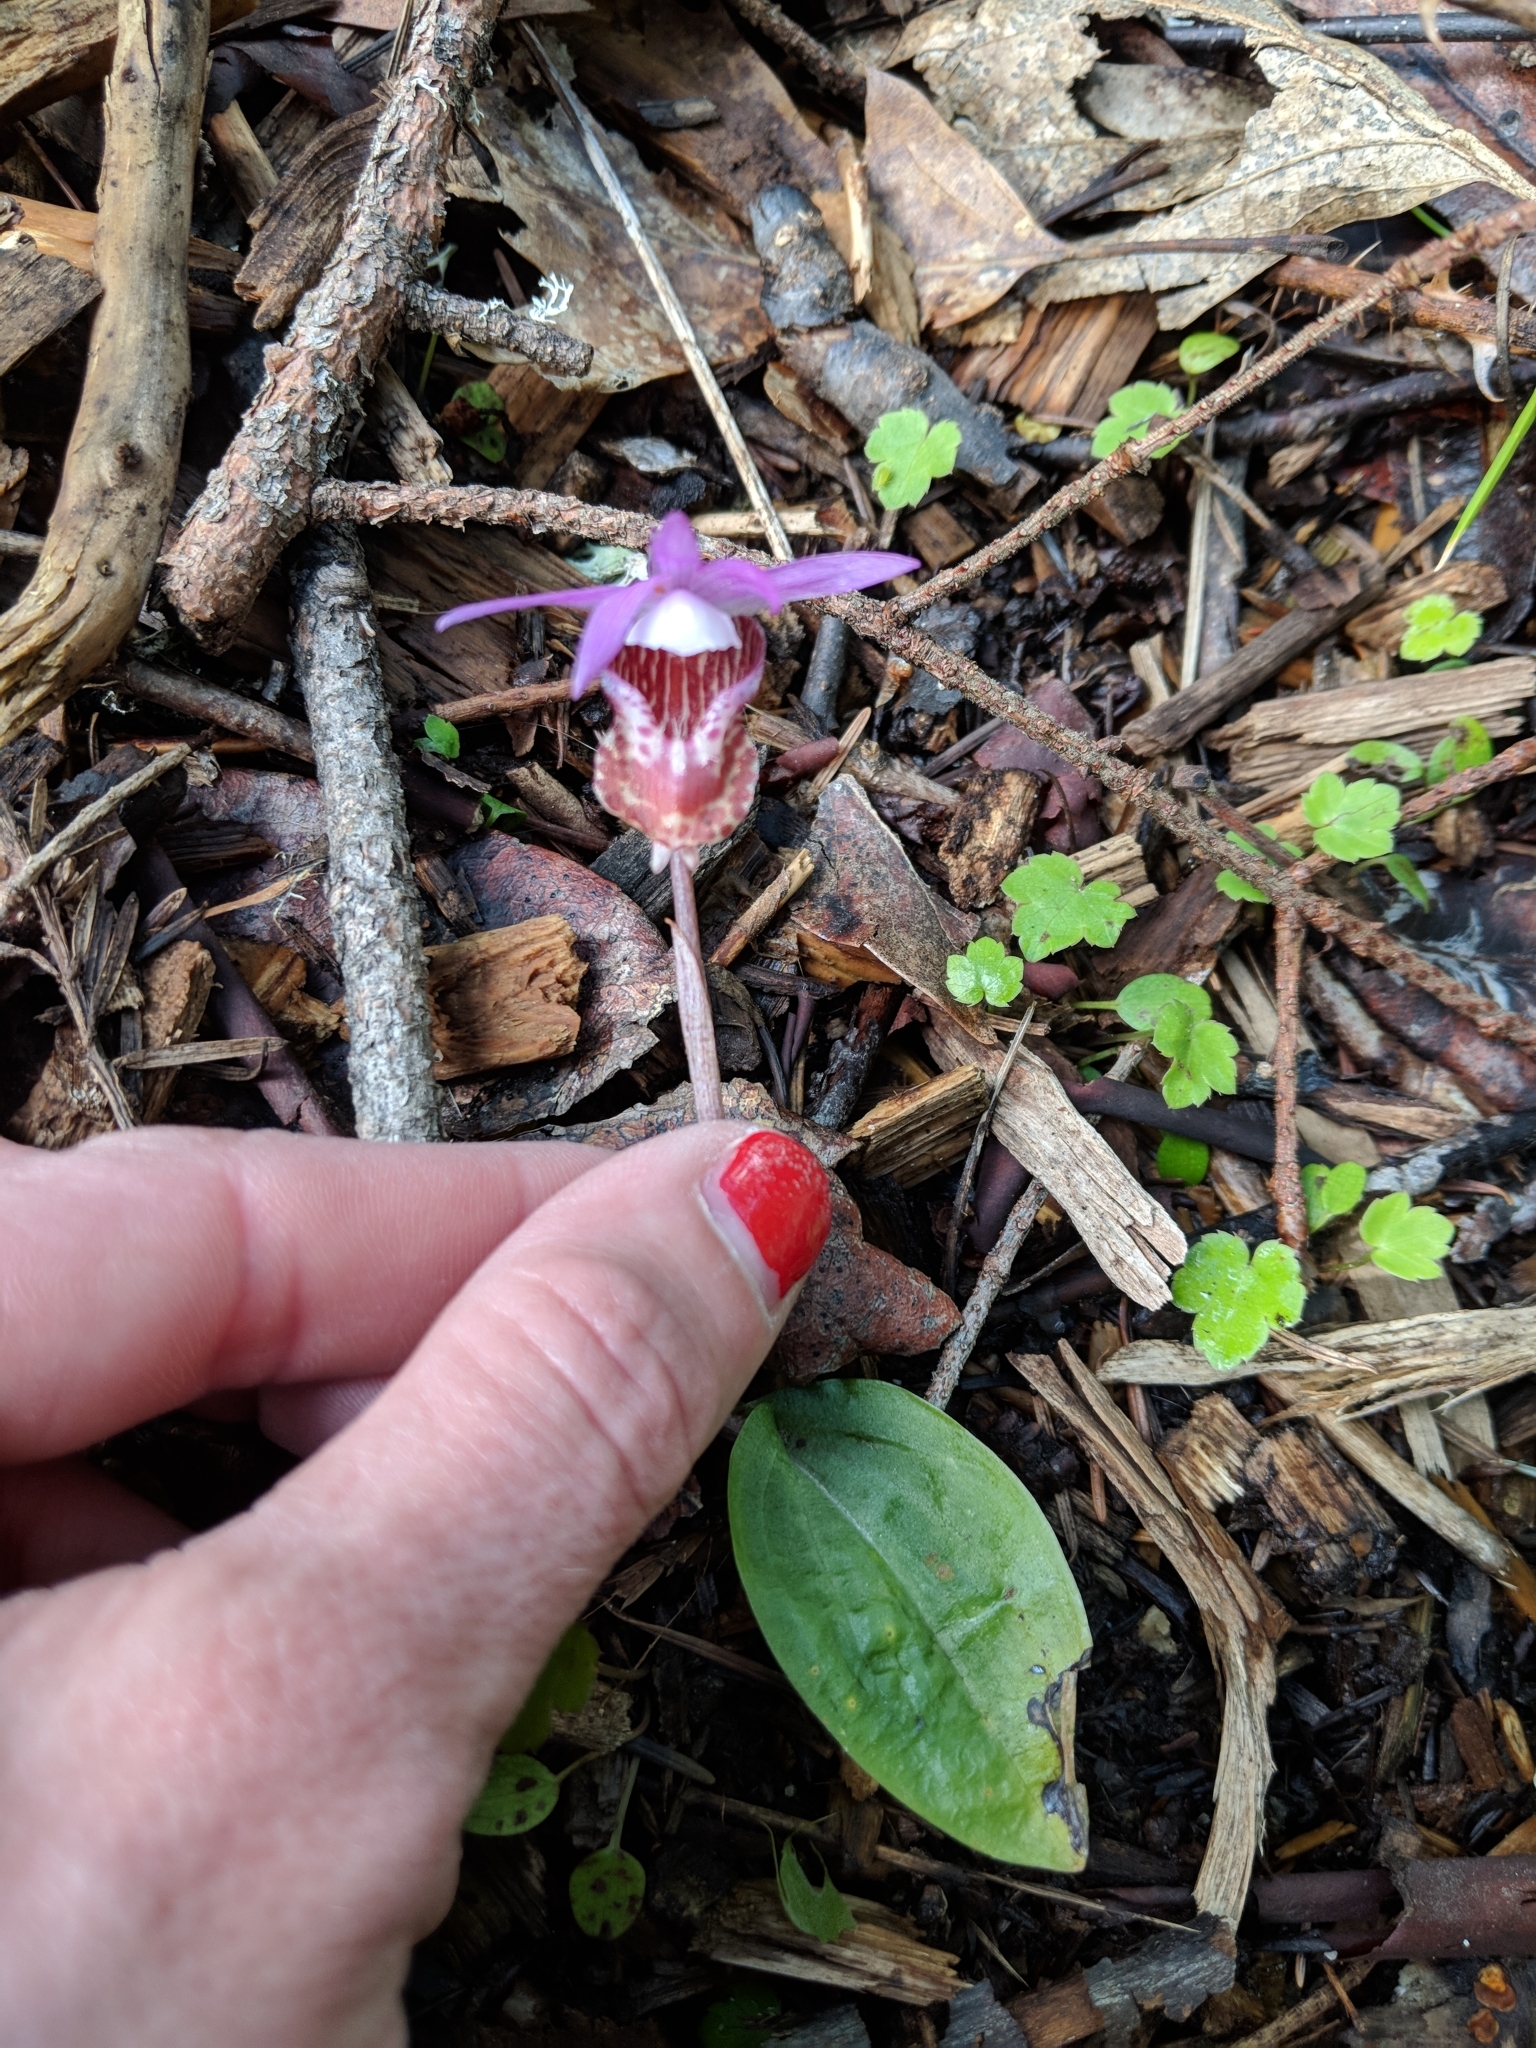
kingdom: Plantae
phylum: Tracheophyta
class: Liliopsida
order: Asparagales
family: Orchidaceae
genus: Calypso
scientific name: Calypso bulbosa
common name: Calypso
